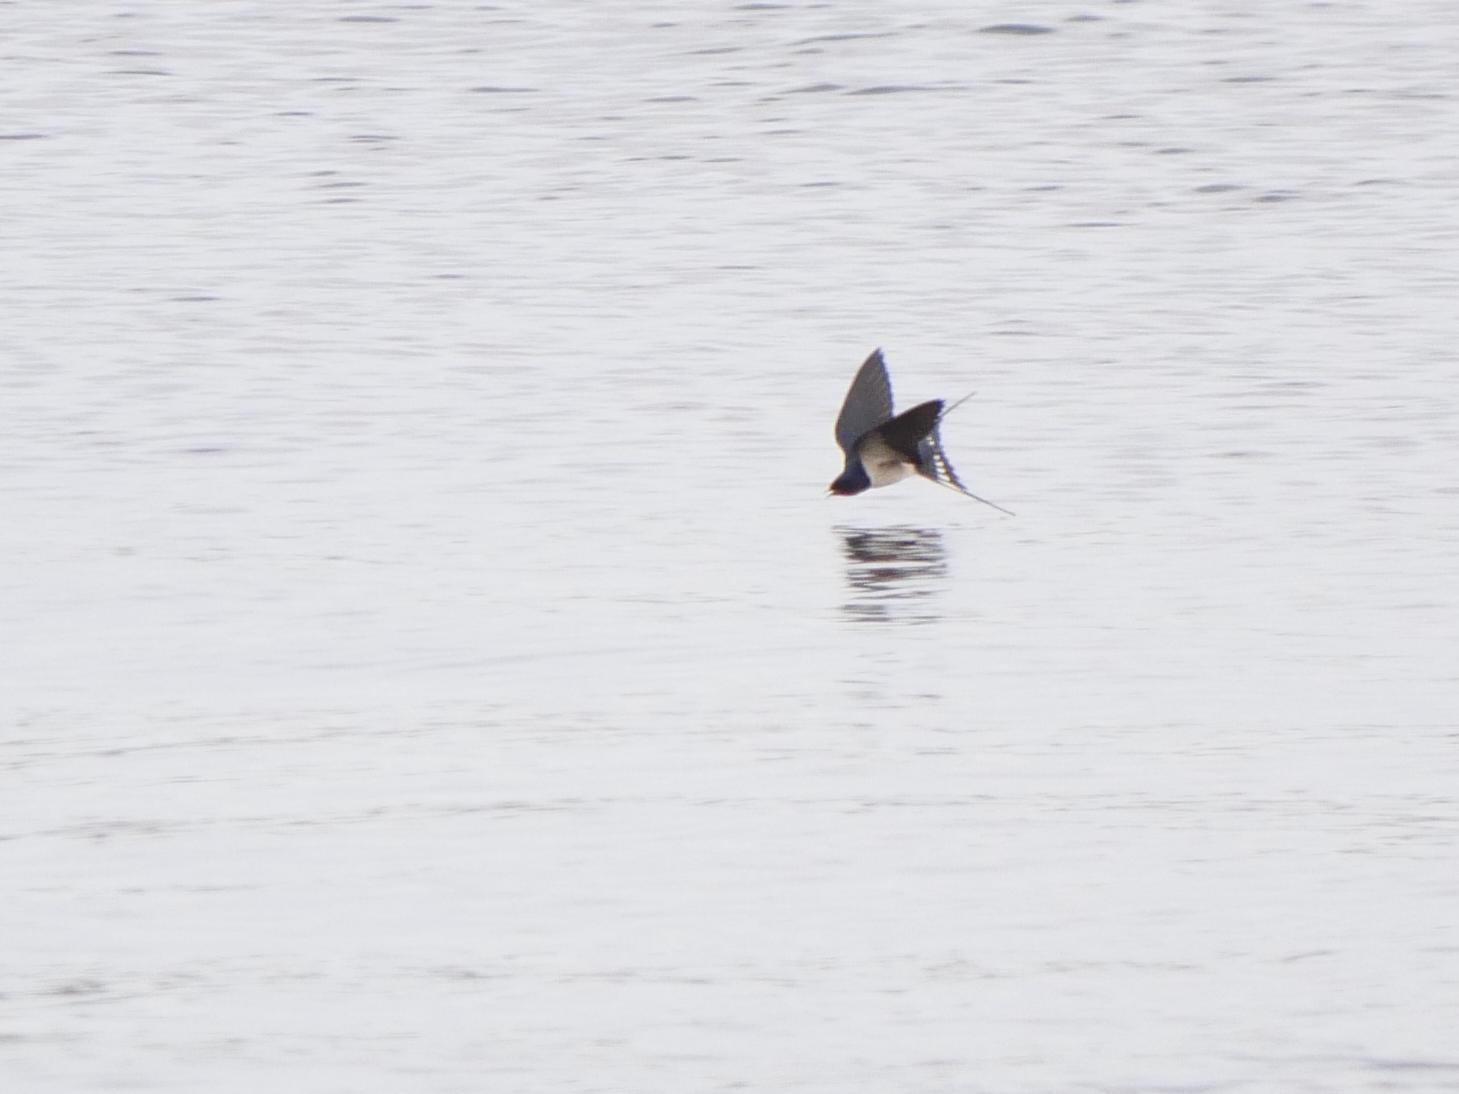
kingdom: Animalia
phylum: Chordata
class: Aves
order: Passeriformes
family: Hirundinidae
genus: Hirundo
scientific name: Hirundo rustica
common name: Barn swallow
